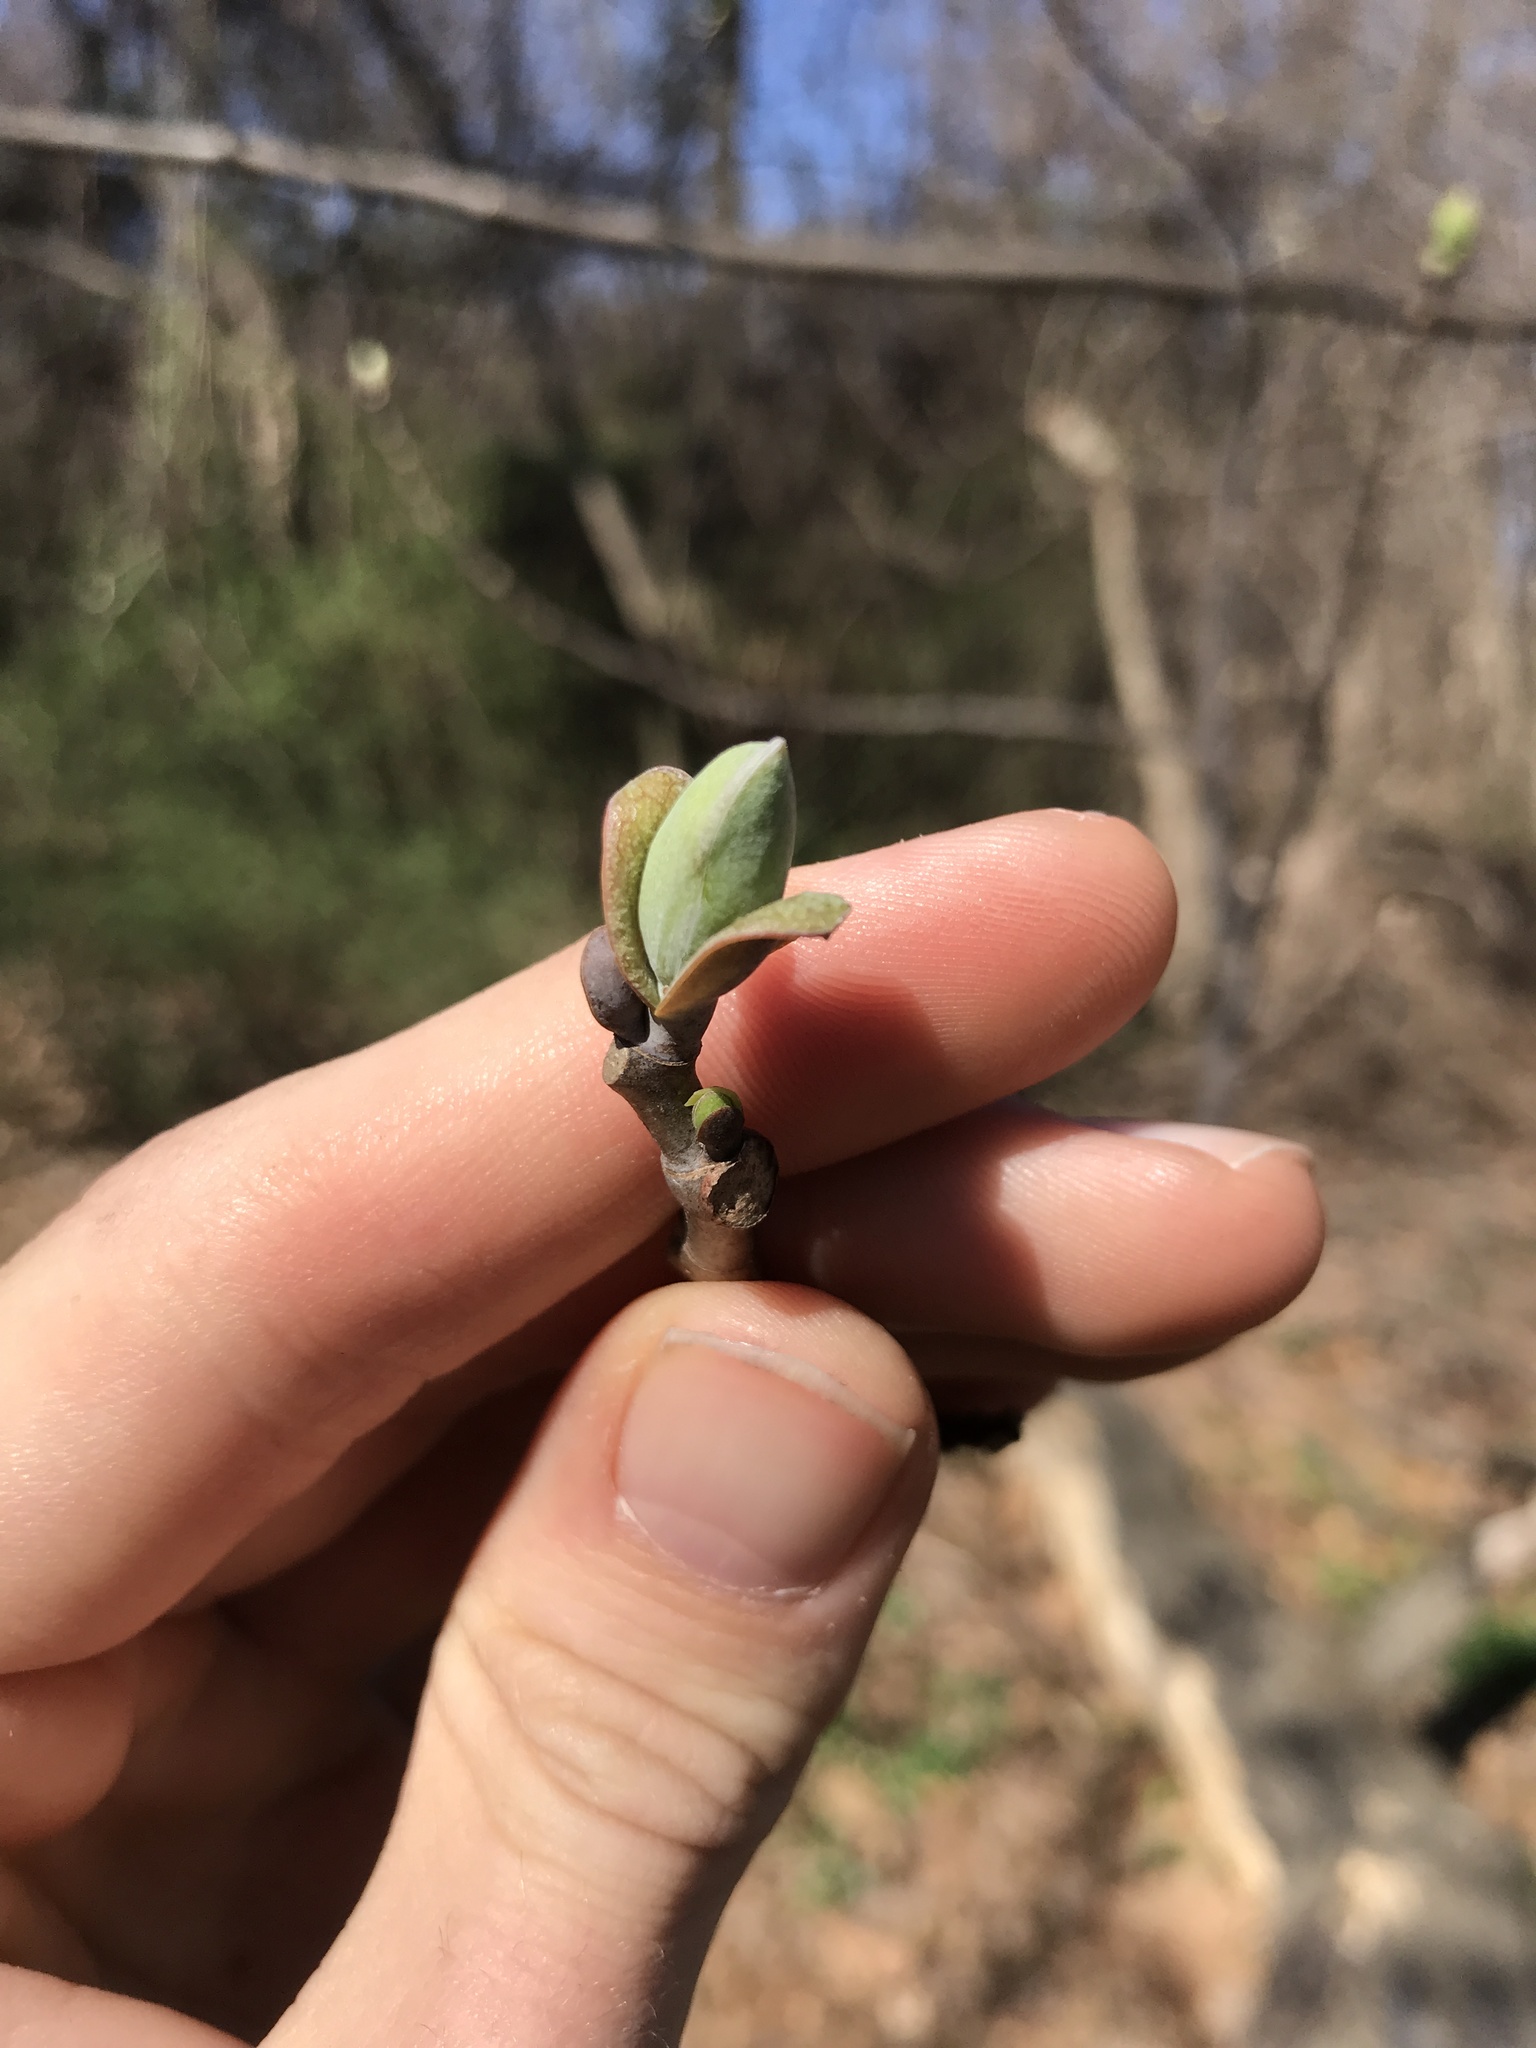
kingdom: Plantae
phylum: Tracheophyta
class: Magnoliopsida
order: Magnoliales
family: Magnoliaceae
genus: Liriodendron
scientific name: Liriodendron tulipifera
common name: Tulip tree
